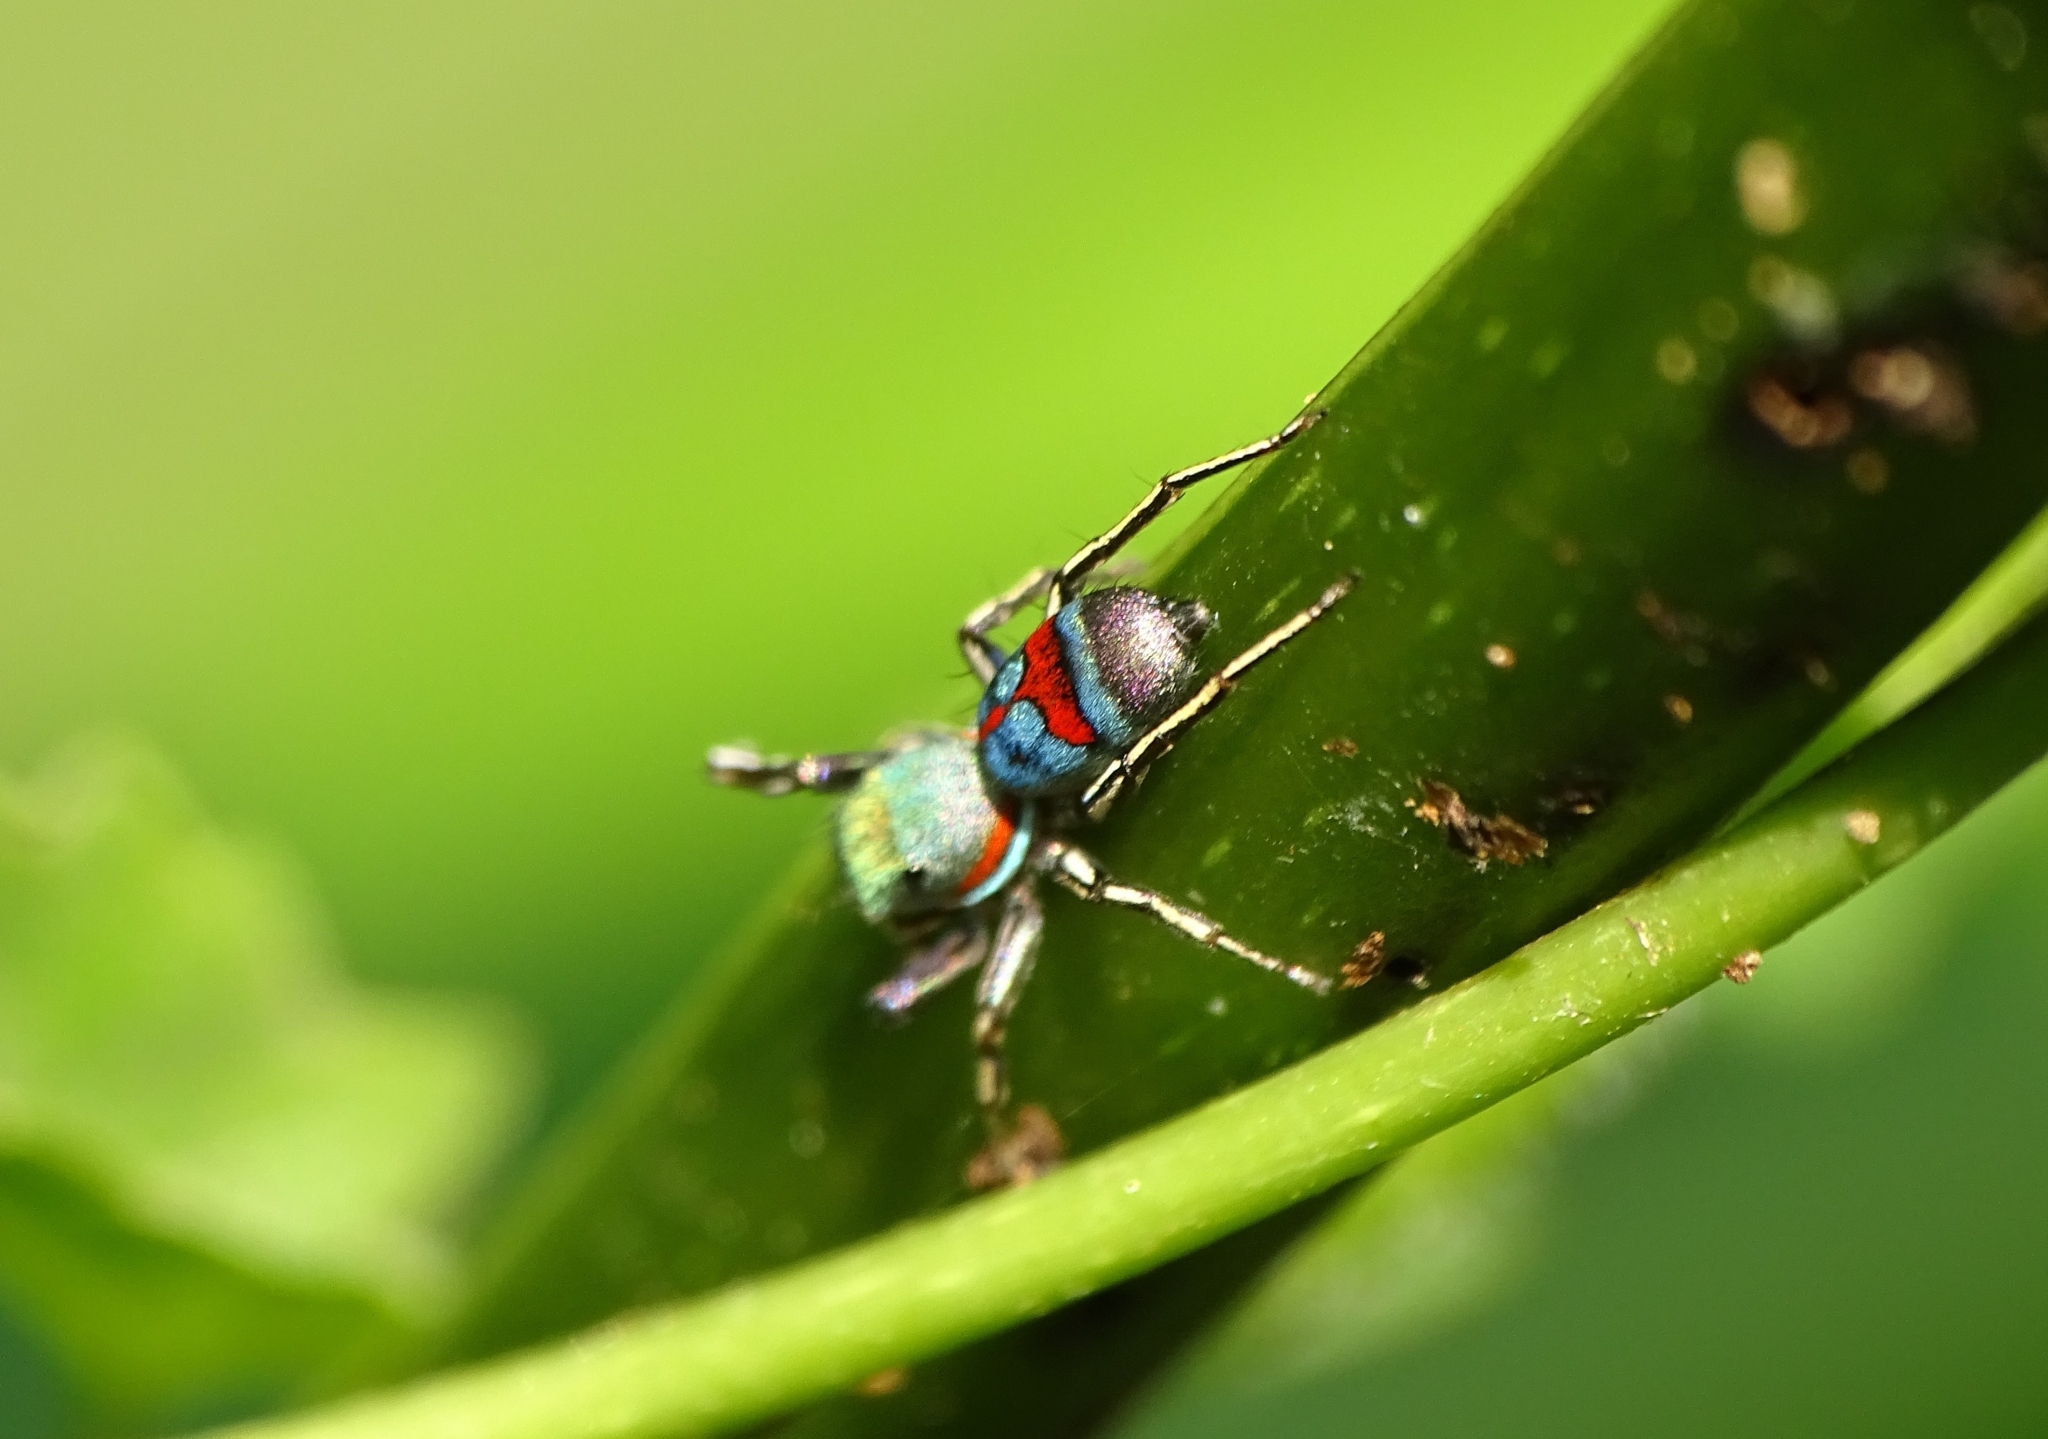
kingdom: Animalia
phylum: Arthropoda
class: Arachnida
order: Araneae
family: Salticidae
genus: Siler
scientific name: Siler semiglaucus
